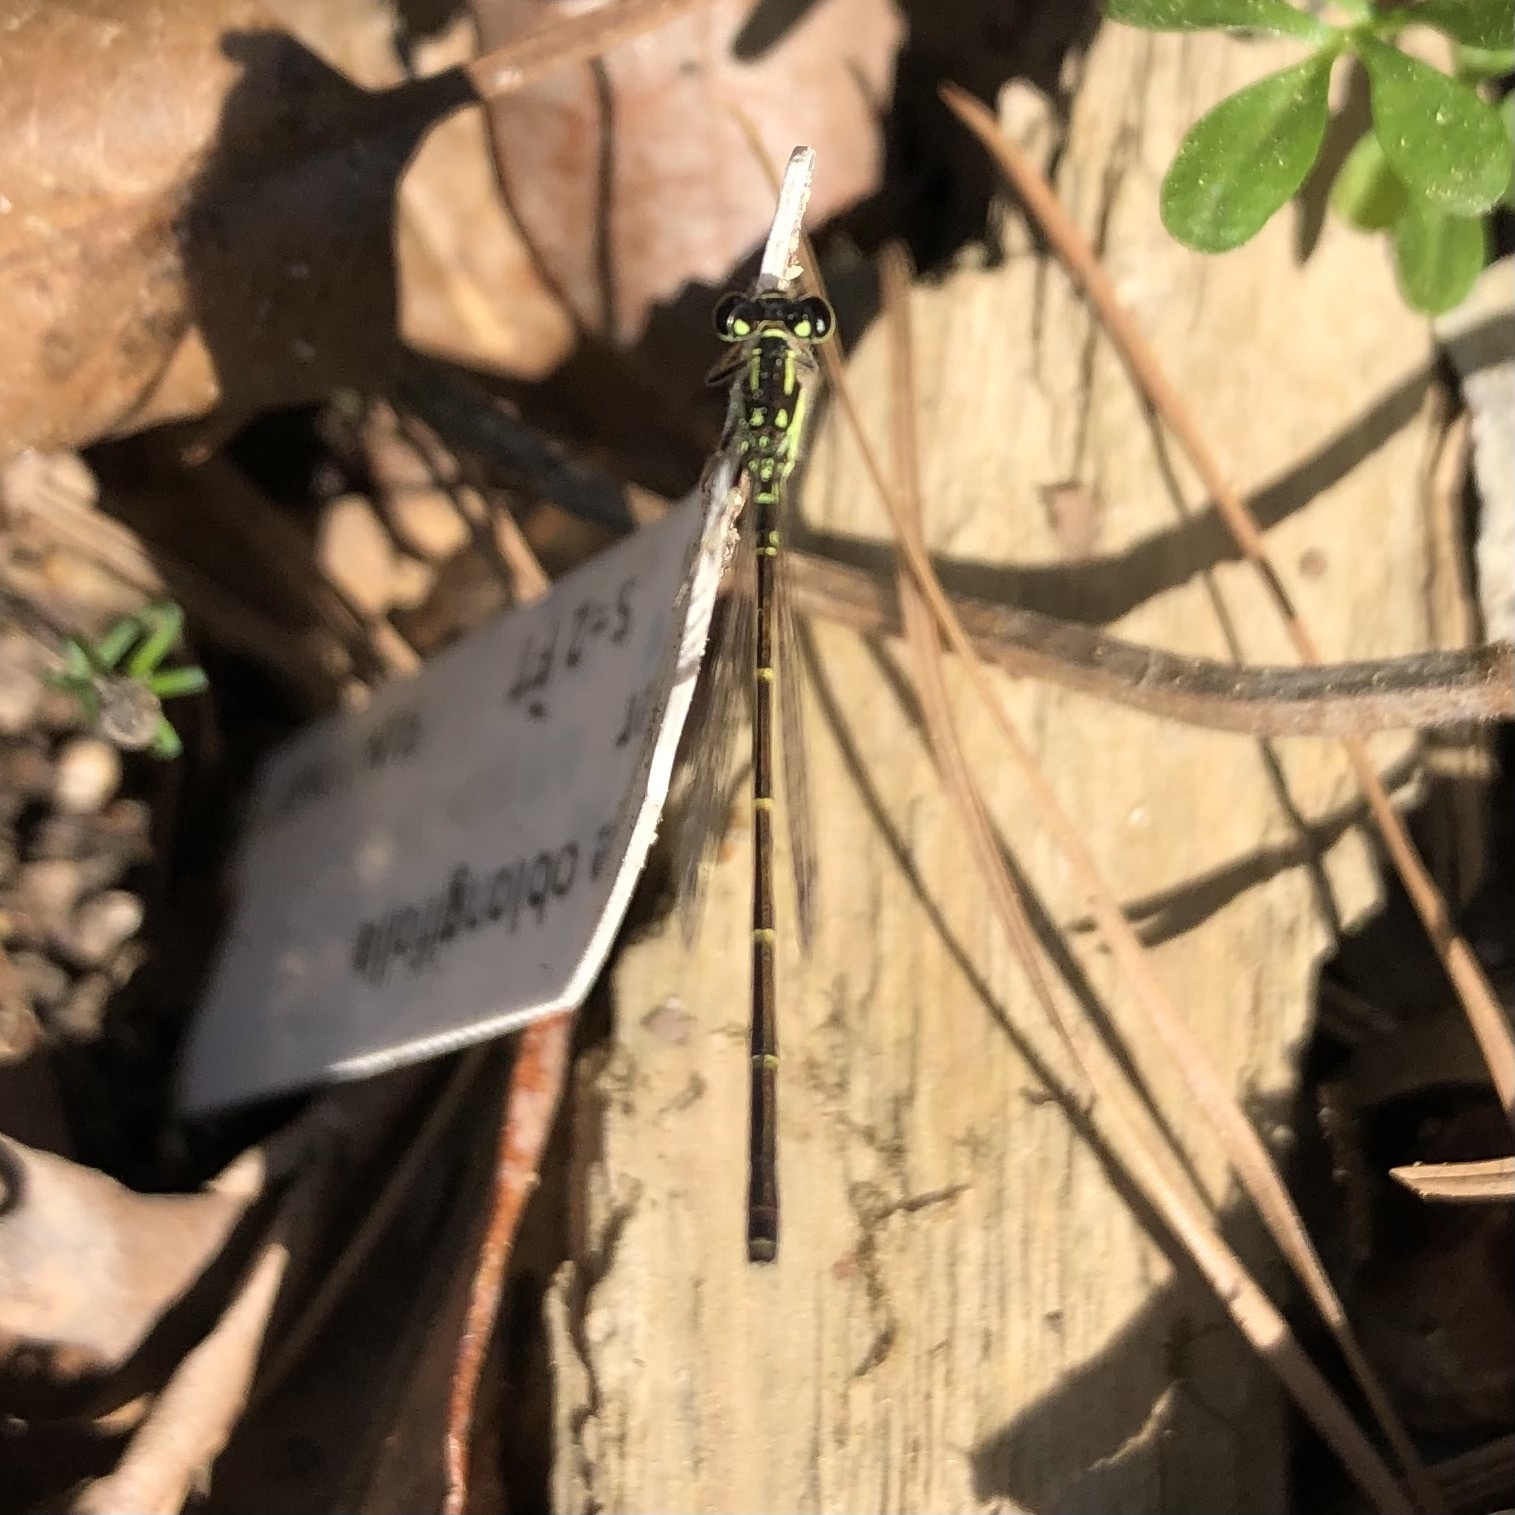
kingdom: Animalia
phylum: Arthropoda
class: Insecta
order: Odonata
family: Coenagrionidae
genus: Ischnura
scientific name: Ischnura posita
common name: Fragile forktail
